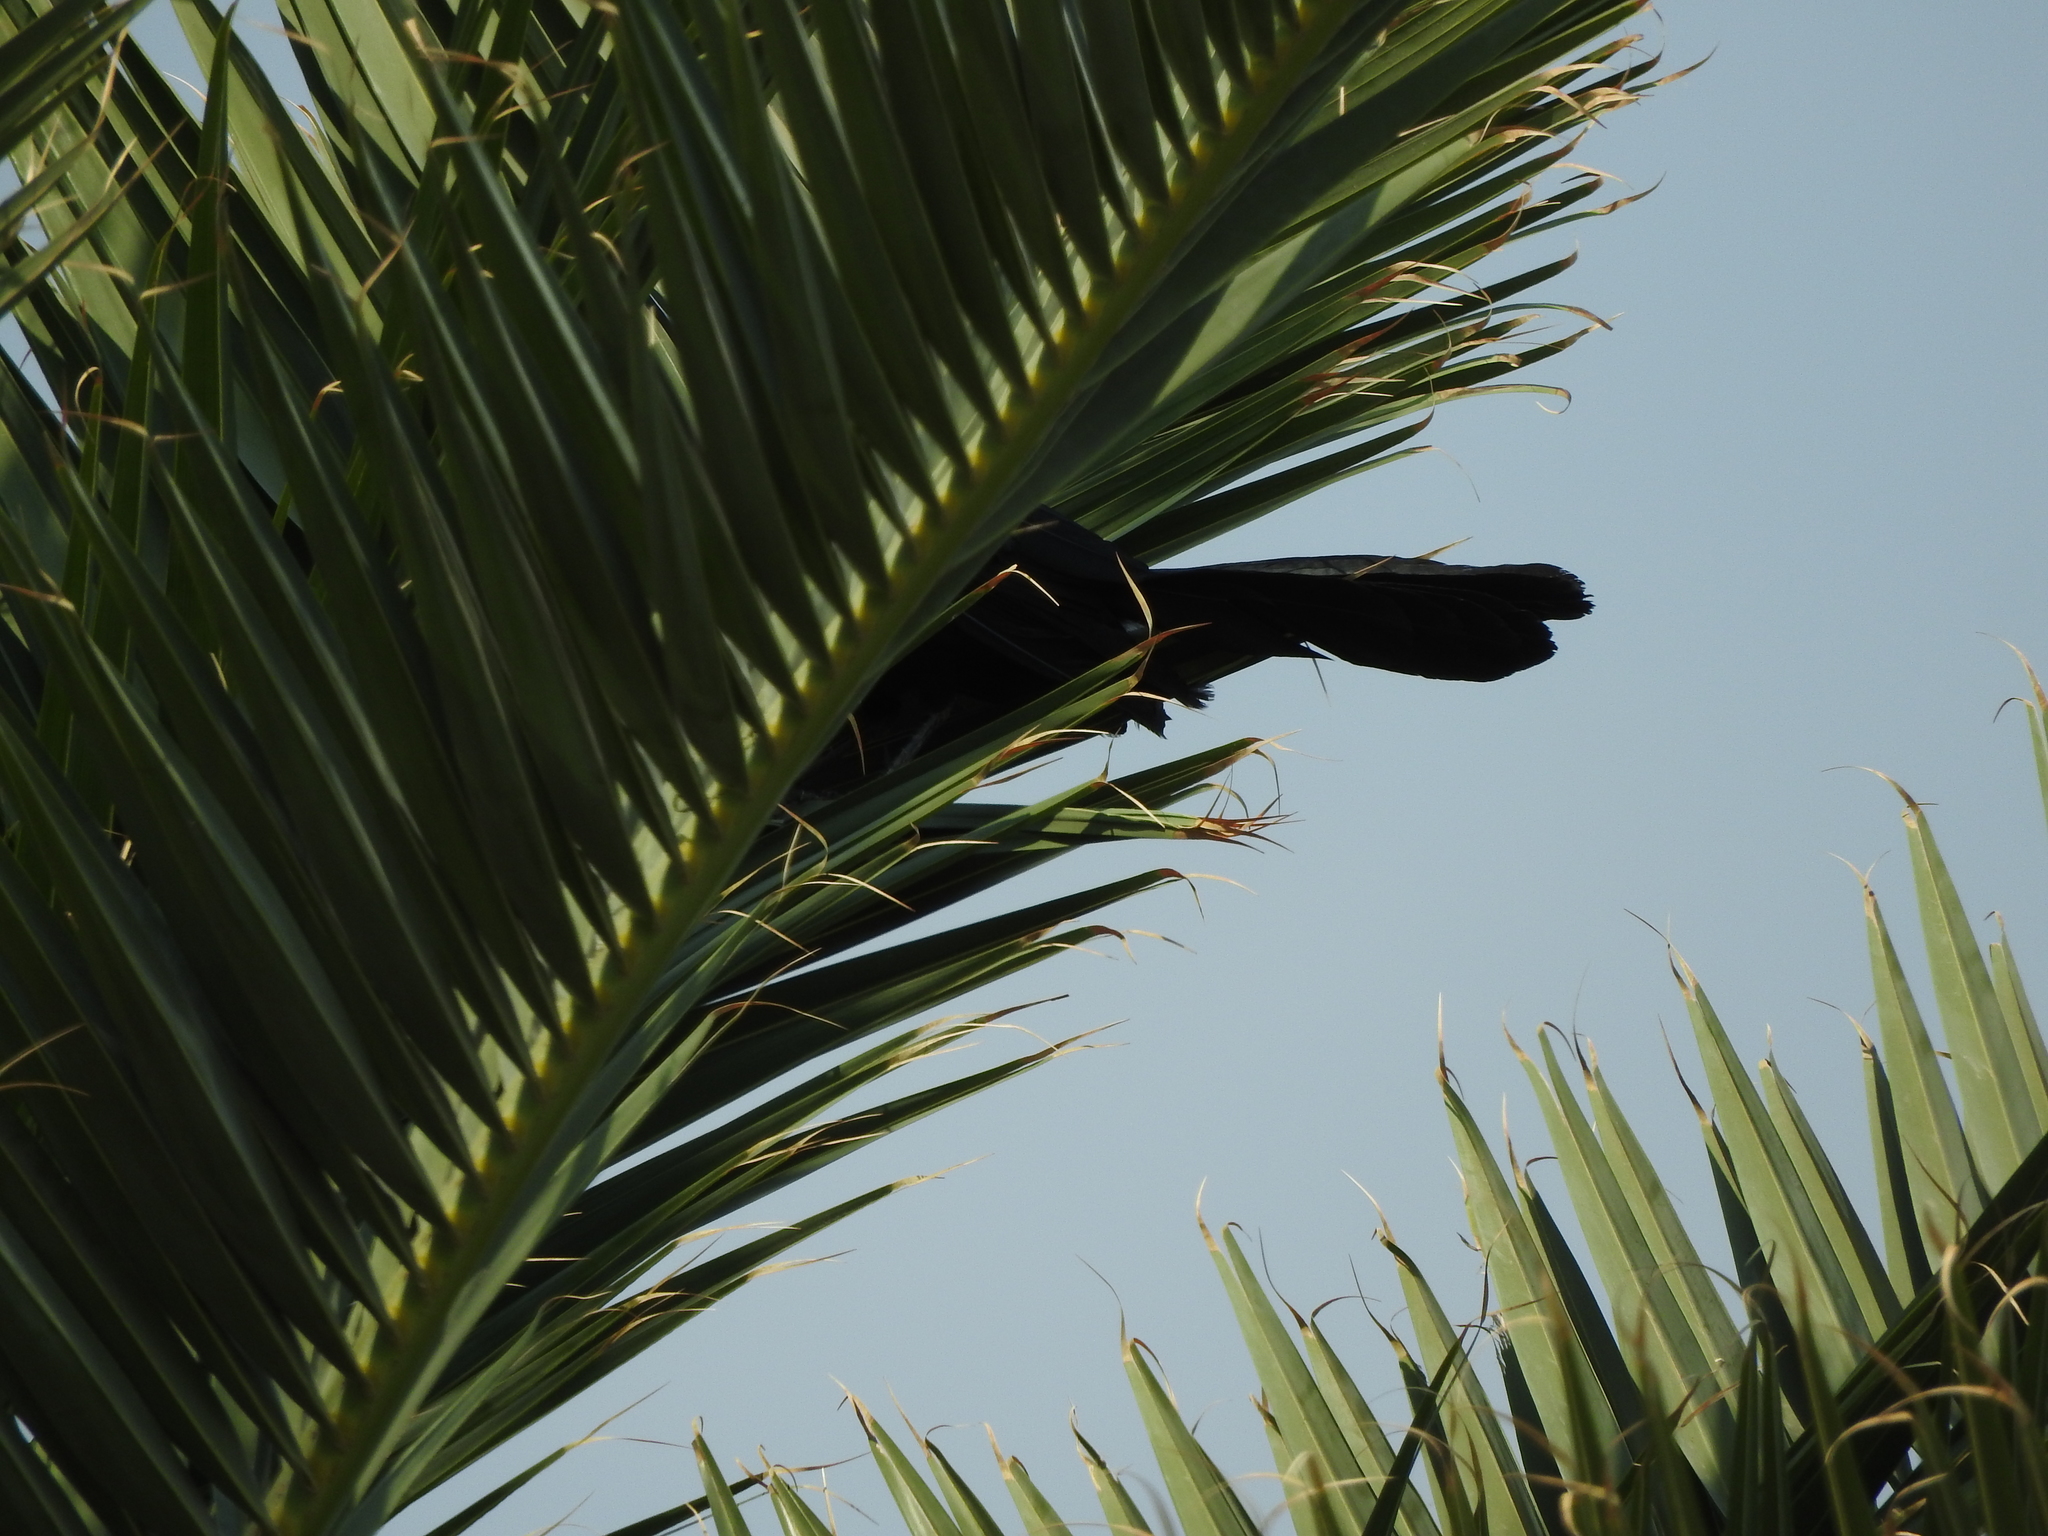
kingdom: Animalia
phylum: Chordata
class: Aves
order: Passeriformes
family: Icteridae
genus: Quiscalus
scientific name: Quiscalus mexicanus
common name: Great-tailed grackle
